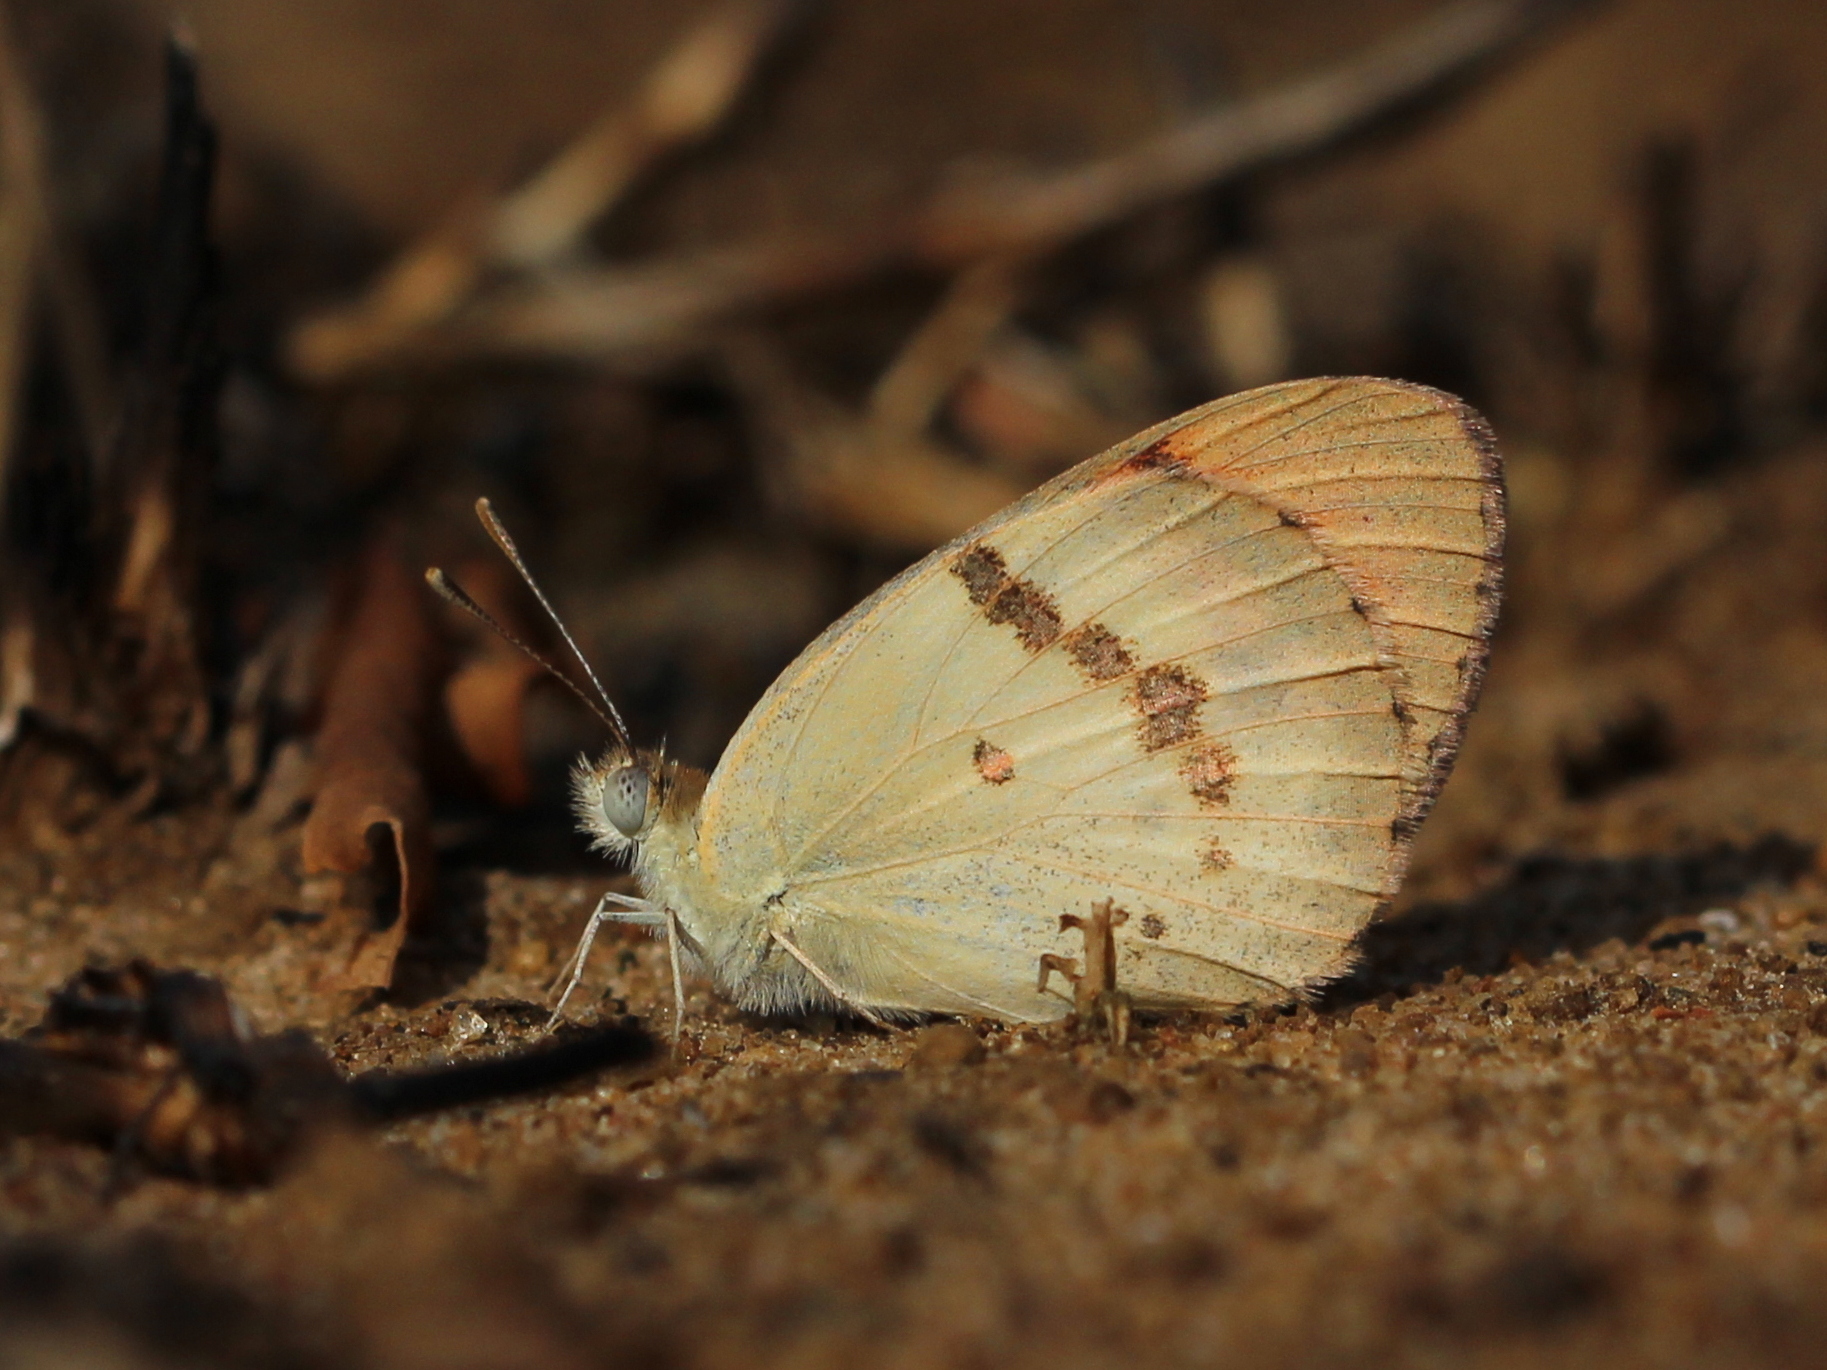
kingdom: Animalia
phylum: Arthropoda
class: Insecta
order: Lepidoptera
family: Pieridae
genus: Colotis
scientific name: Colotis danae
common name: Crimson tip
